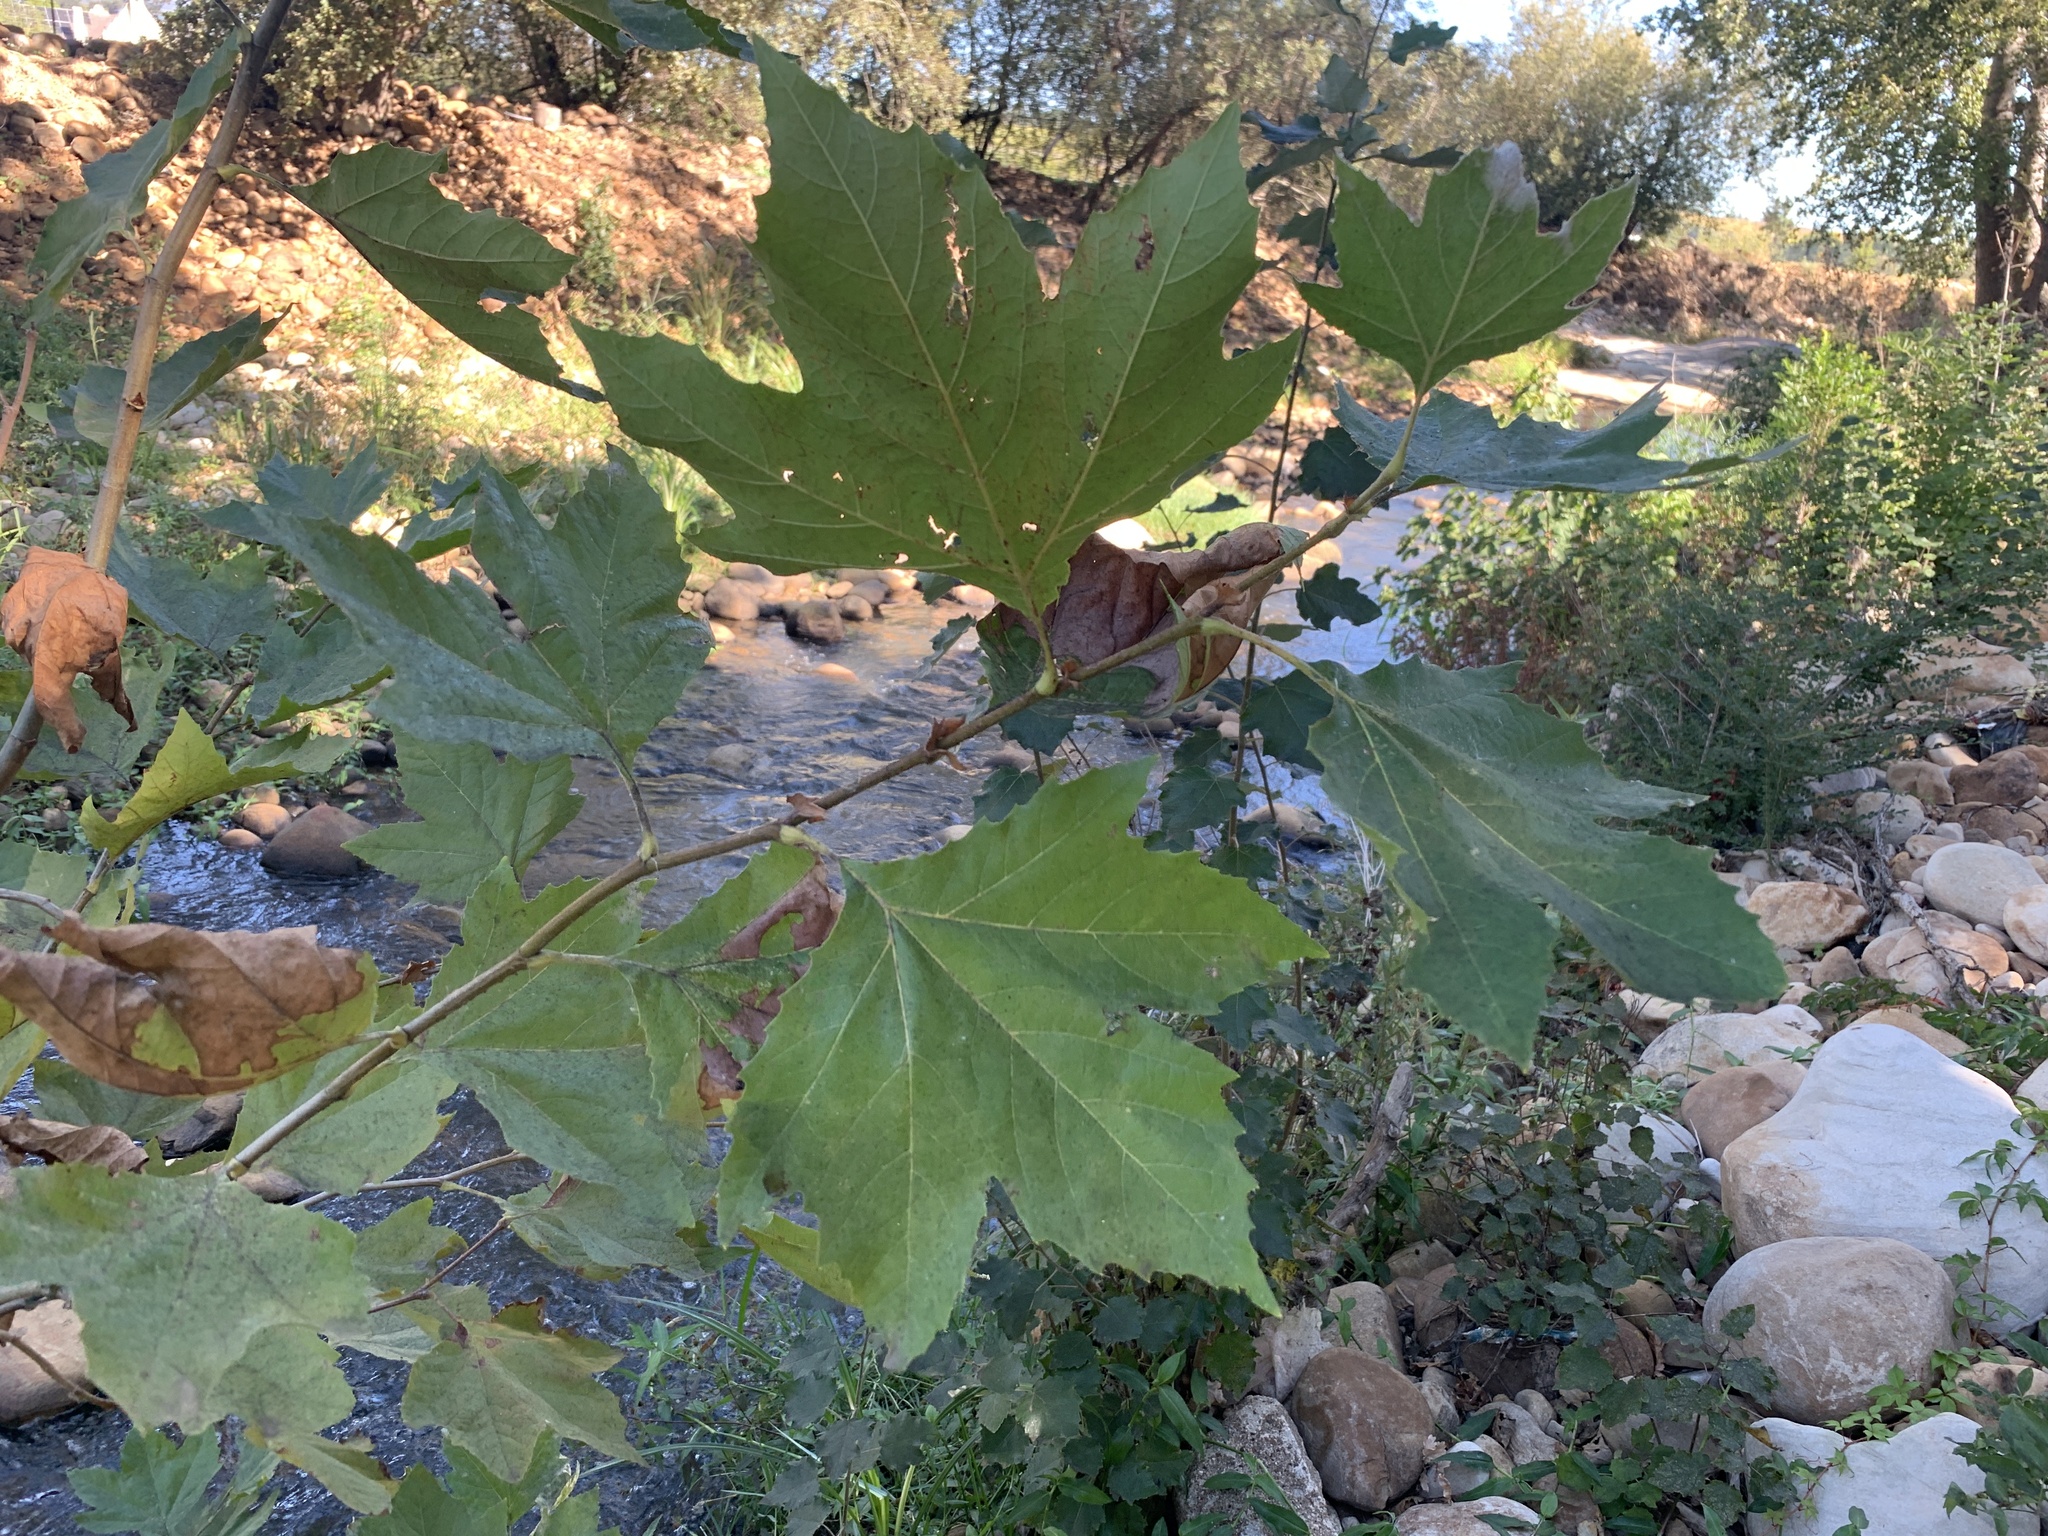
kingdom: Plantae
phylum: Tracheophyta
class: Magnoliopsida
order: Proteales
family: Platanaceae
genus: Platanus
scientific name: Platanus hispanica
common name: London plane
